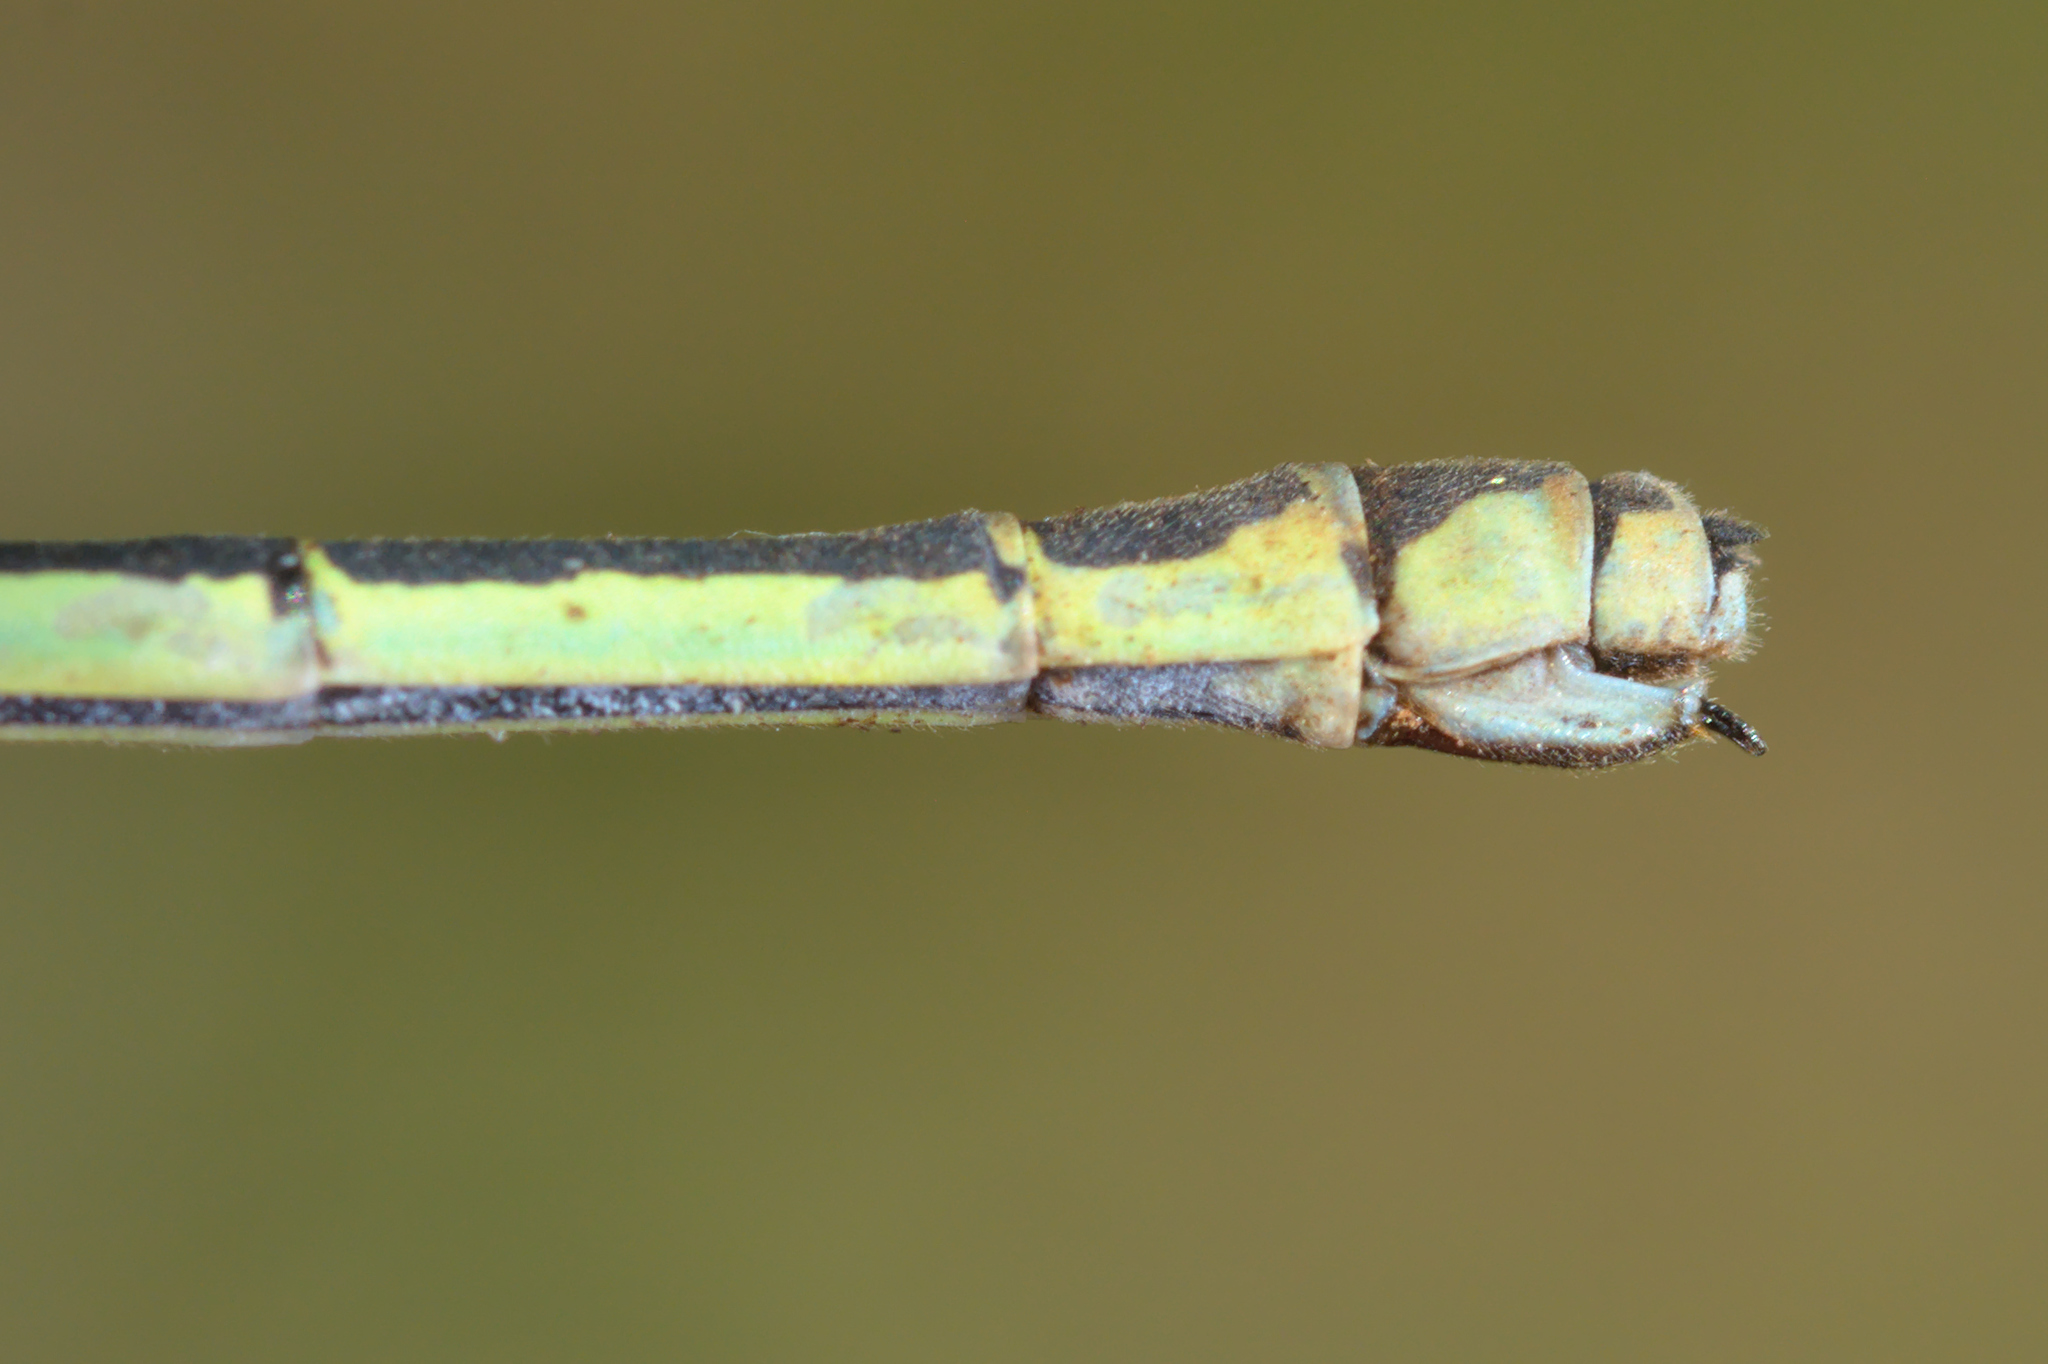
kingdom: Animalia
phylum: Arthropoda
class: Insecta
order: Odonata
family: Coenagrionidae
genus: Coenagrion
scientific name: Coenagrion puella
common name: Azure damselfly
